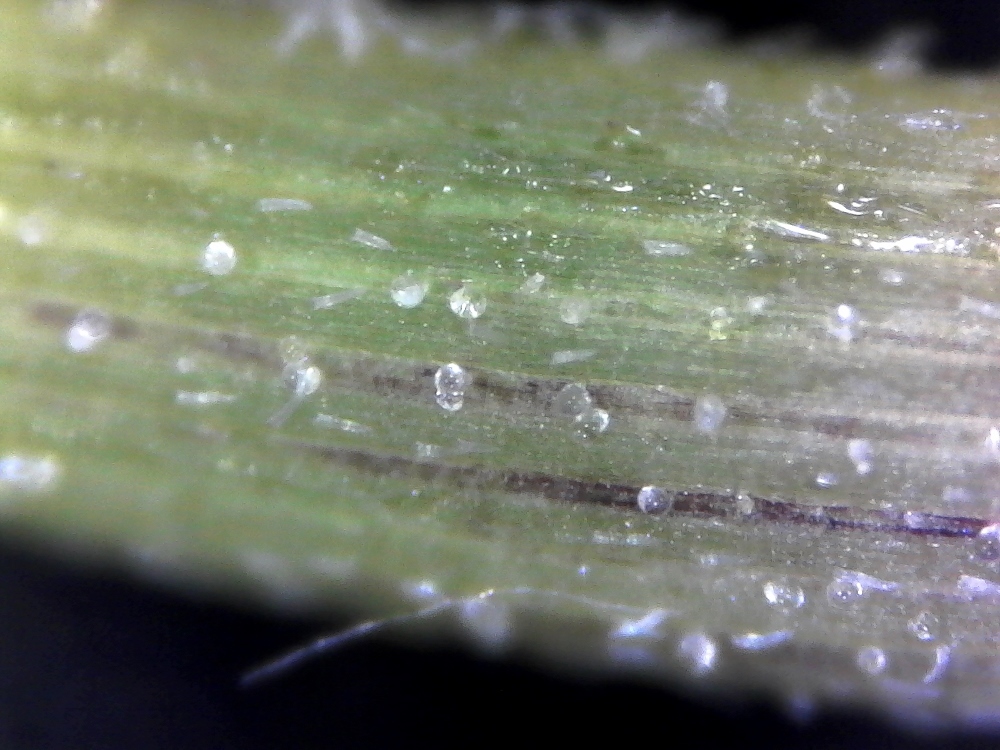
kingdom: Plantae
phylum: Tracheophyta
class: Magnoliopsida
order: Asterales
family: Asteraceae
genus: Pegolettia
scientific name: Pegolettia retrofracta
